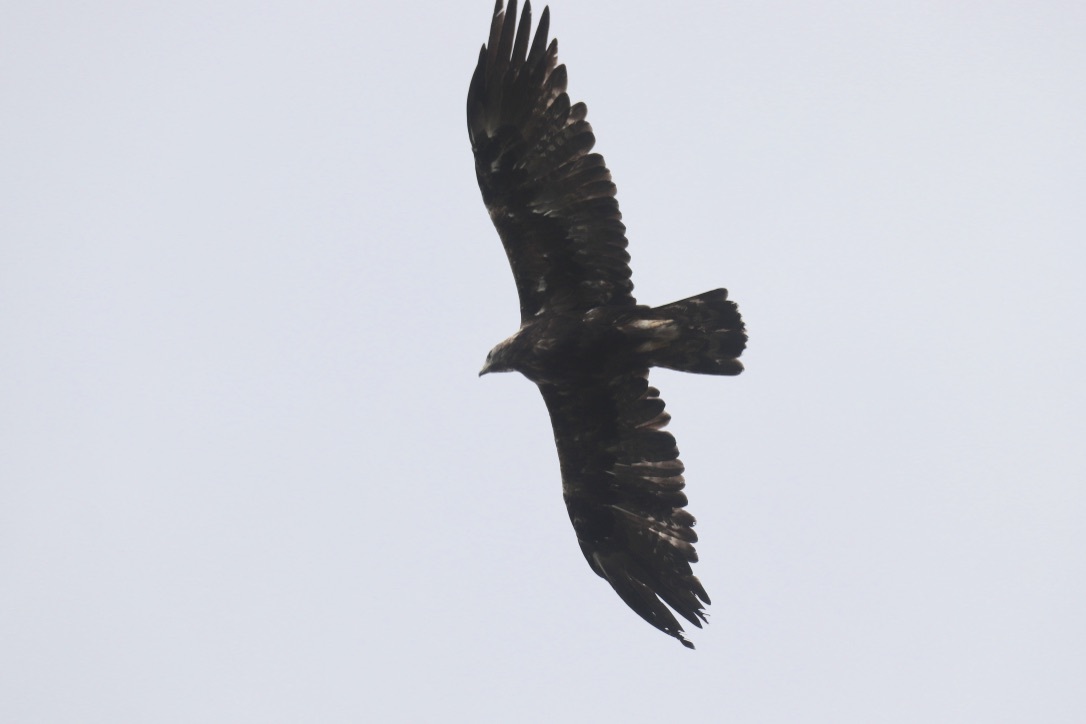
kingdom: Animalia
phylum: Chordata
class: Aves
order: Accipitriformes
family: Accipitridae
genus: Aquila
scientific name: Aquila chrysaetos
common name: Golden eagle
